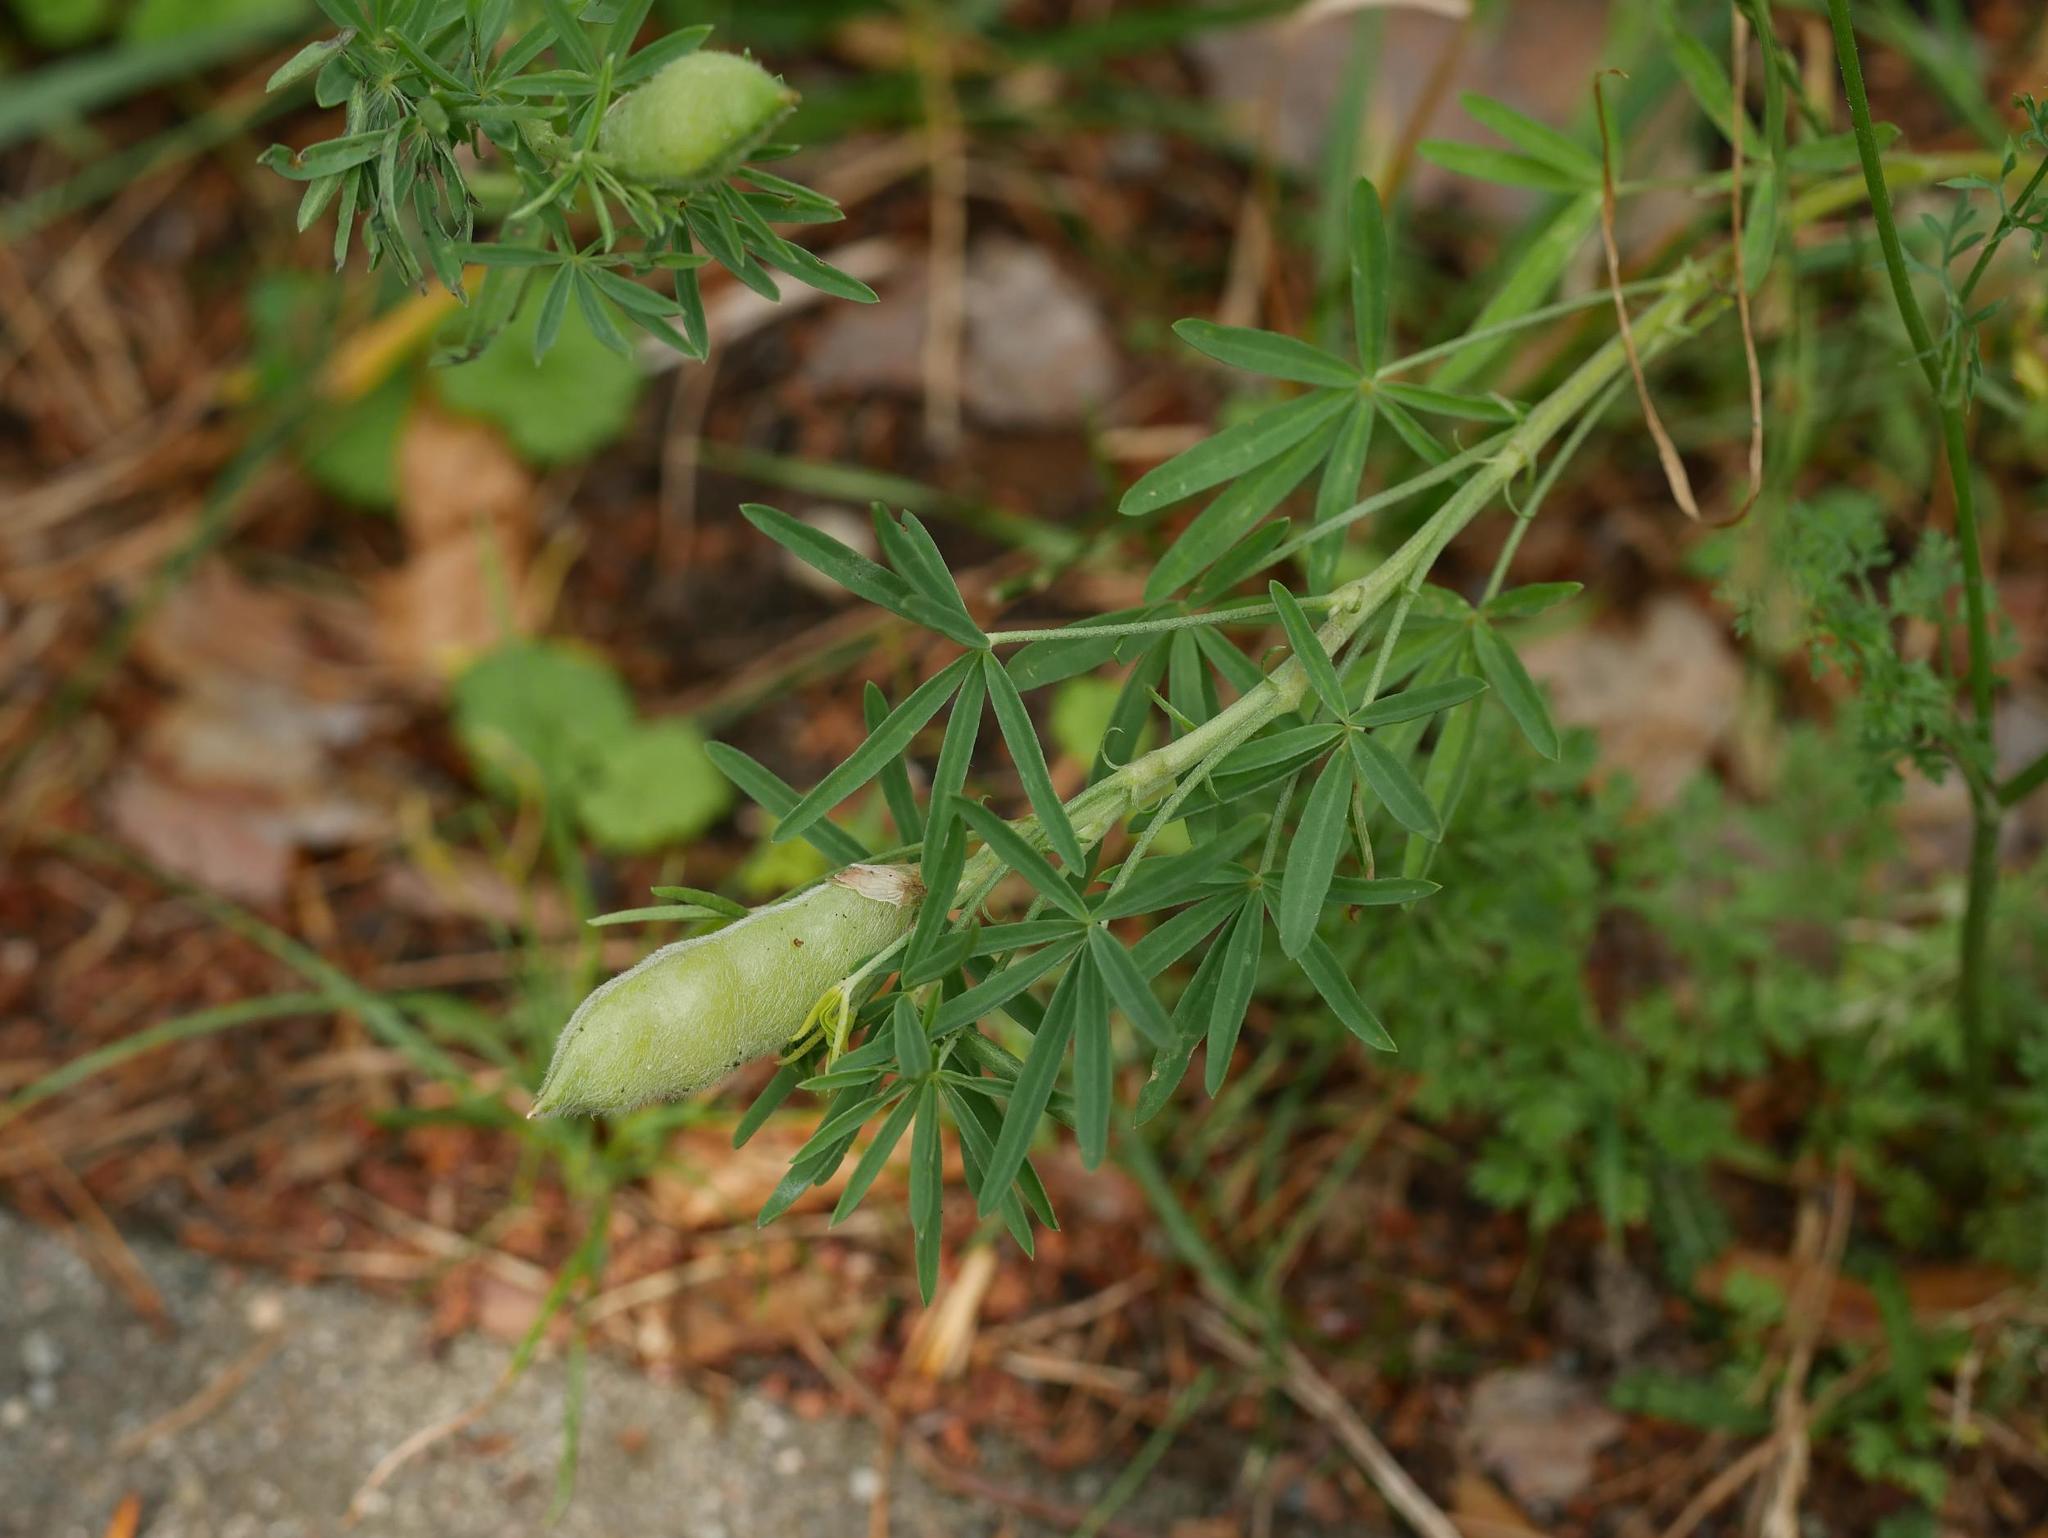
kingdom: Plantae
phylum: Tracheophyta
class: Magnoliopsida
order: Fabales
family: Fabaceae
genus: Lupinus
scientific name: Lupinus angustifolius
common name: Narrow-leaved lupin
